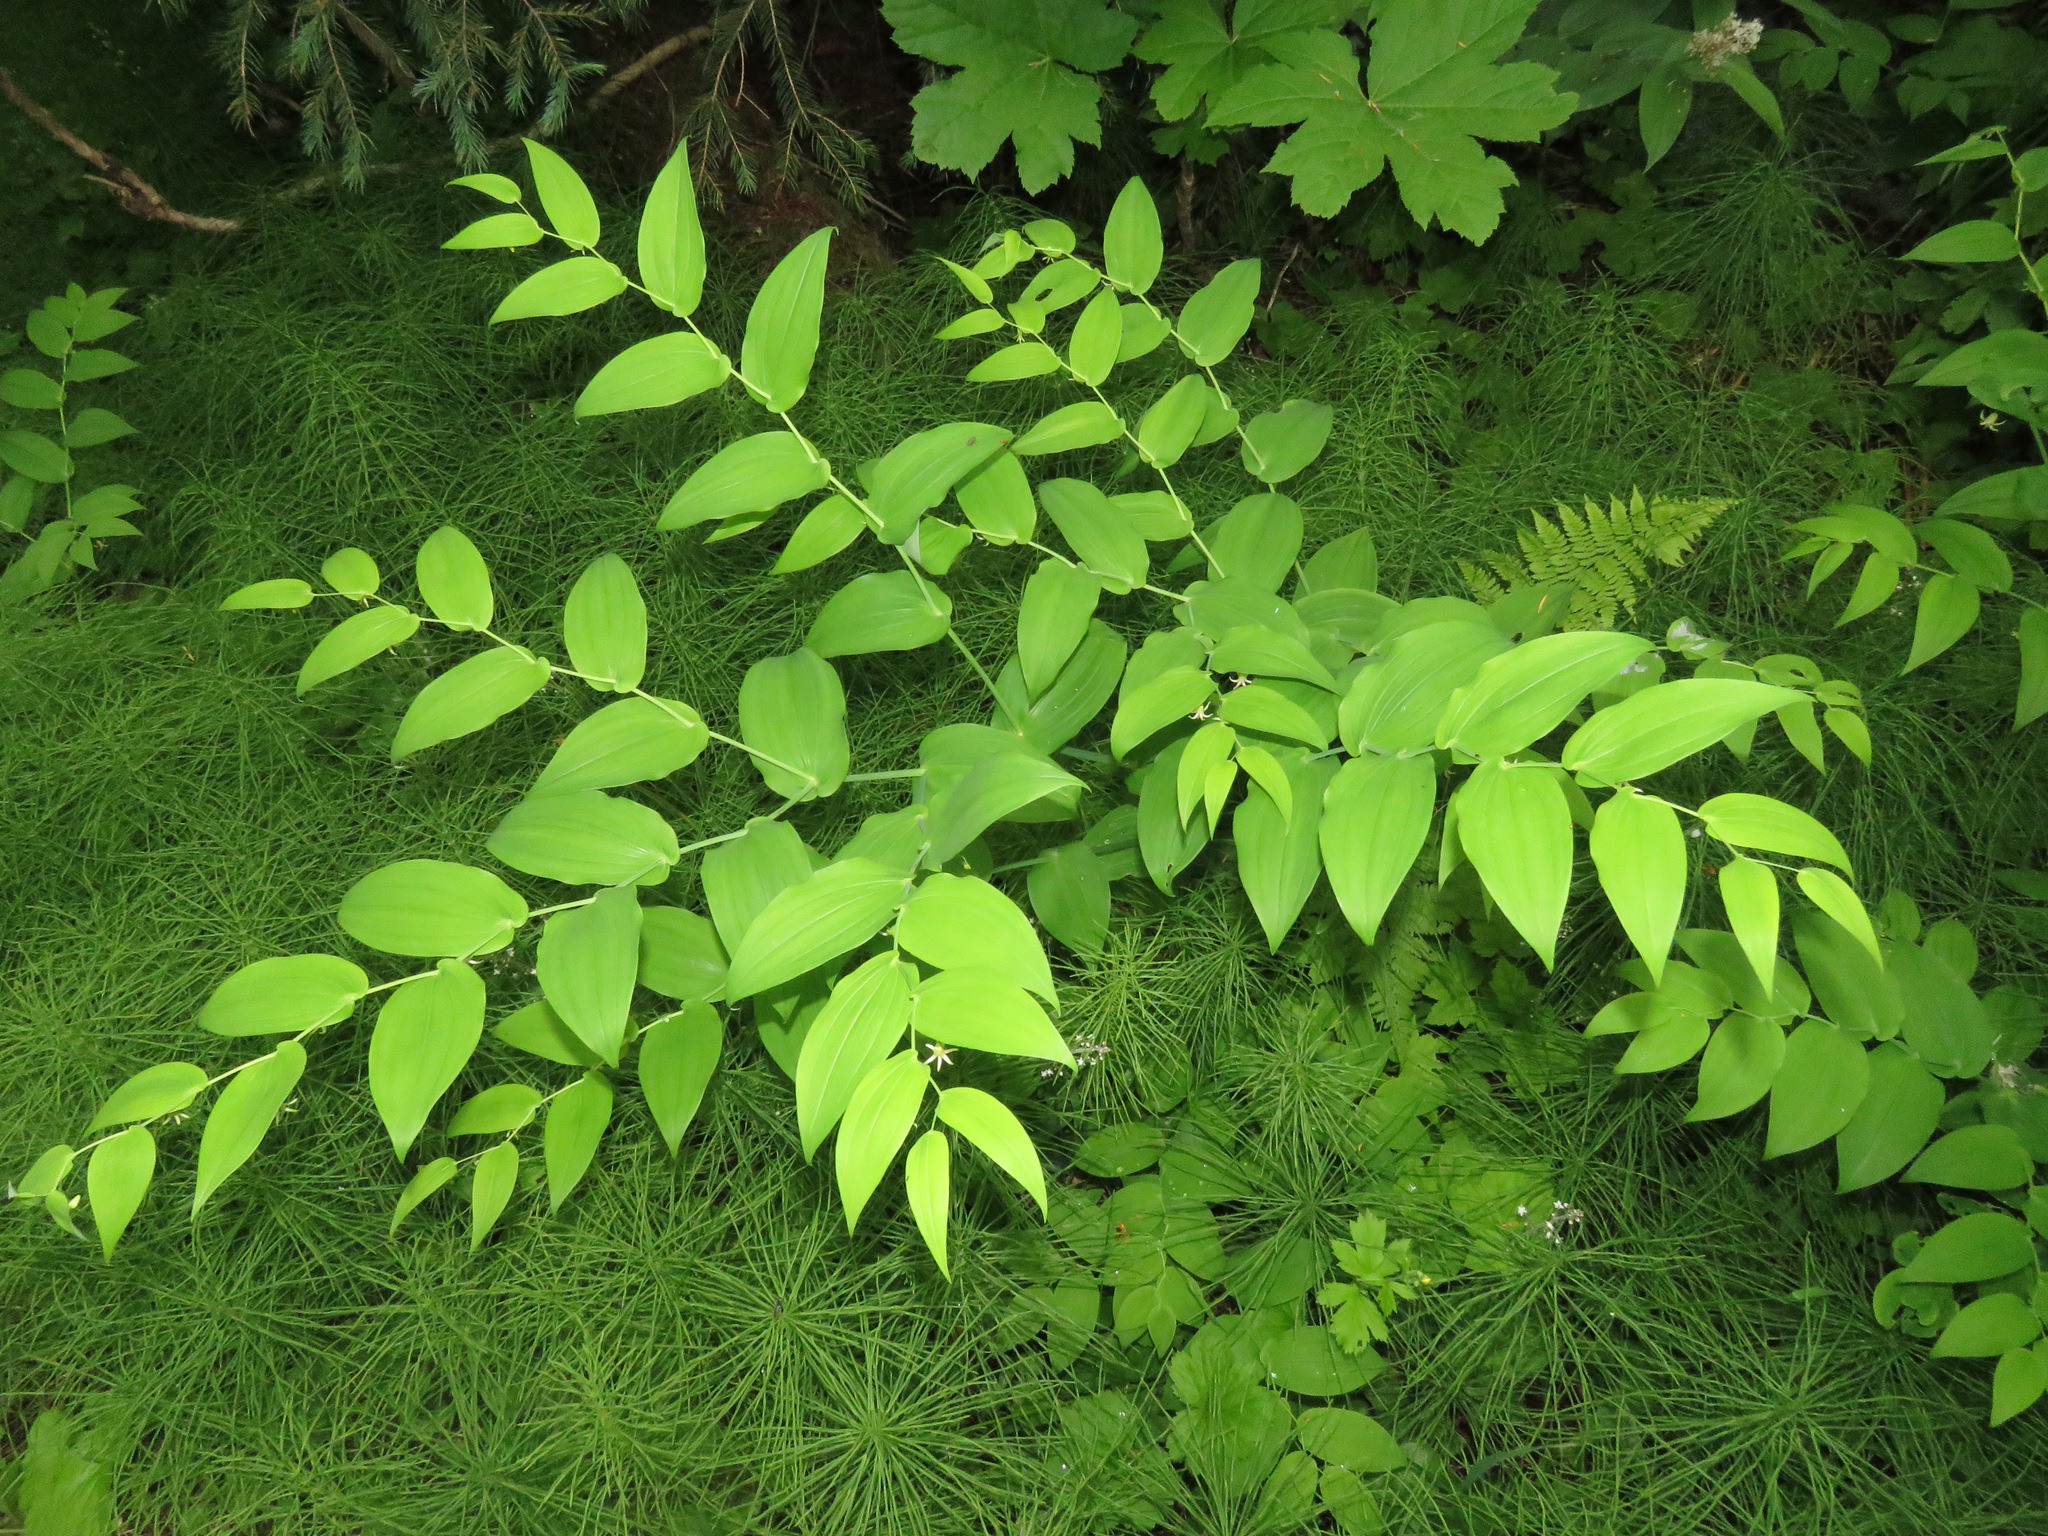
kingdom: Plantae
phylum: Tracheophyta
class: Liliopsida
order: Liliales
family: Liliaceae
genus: Streptopus
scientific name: Streptopus amplexifolius
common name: Clasp twisted stalk
